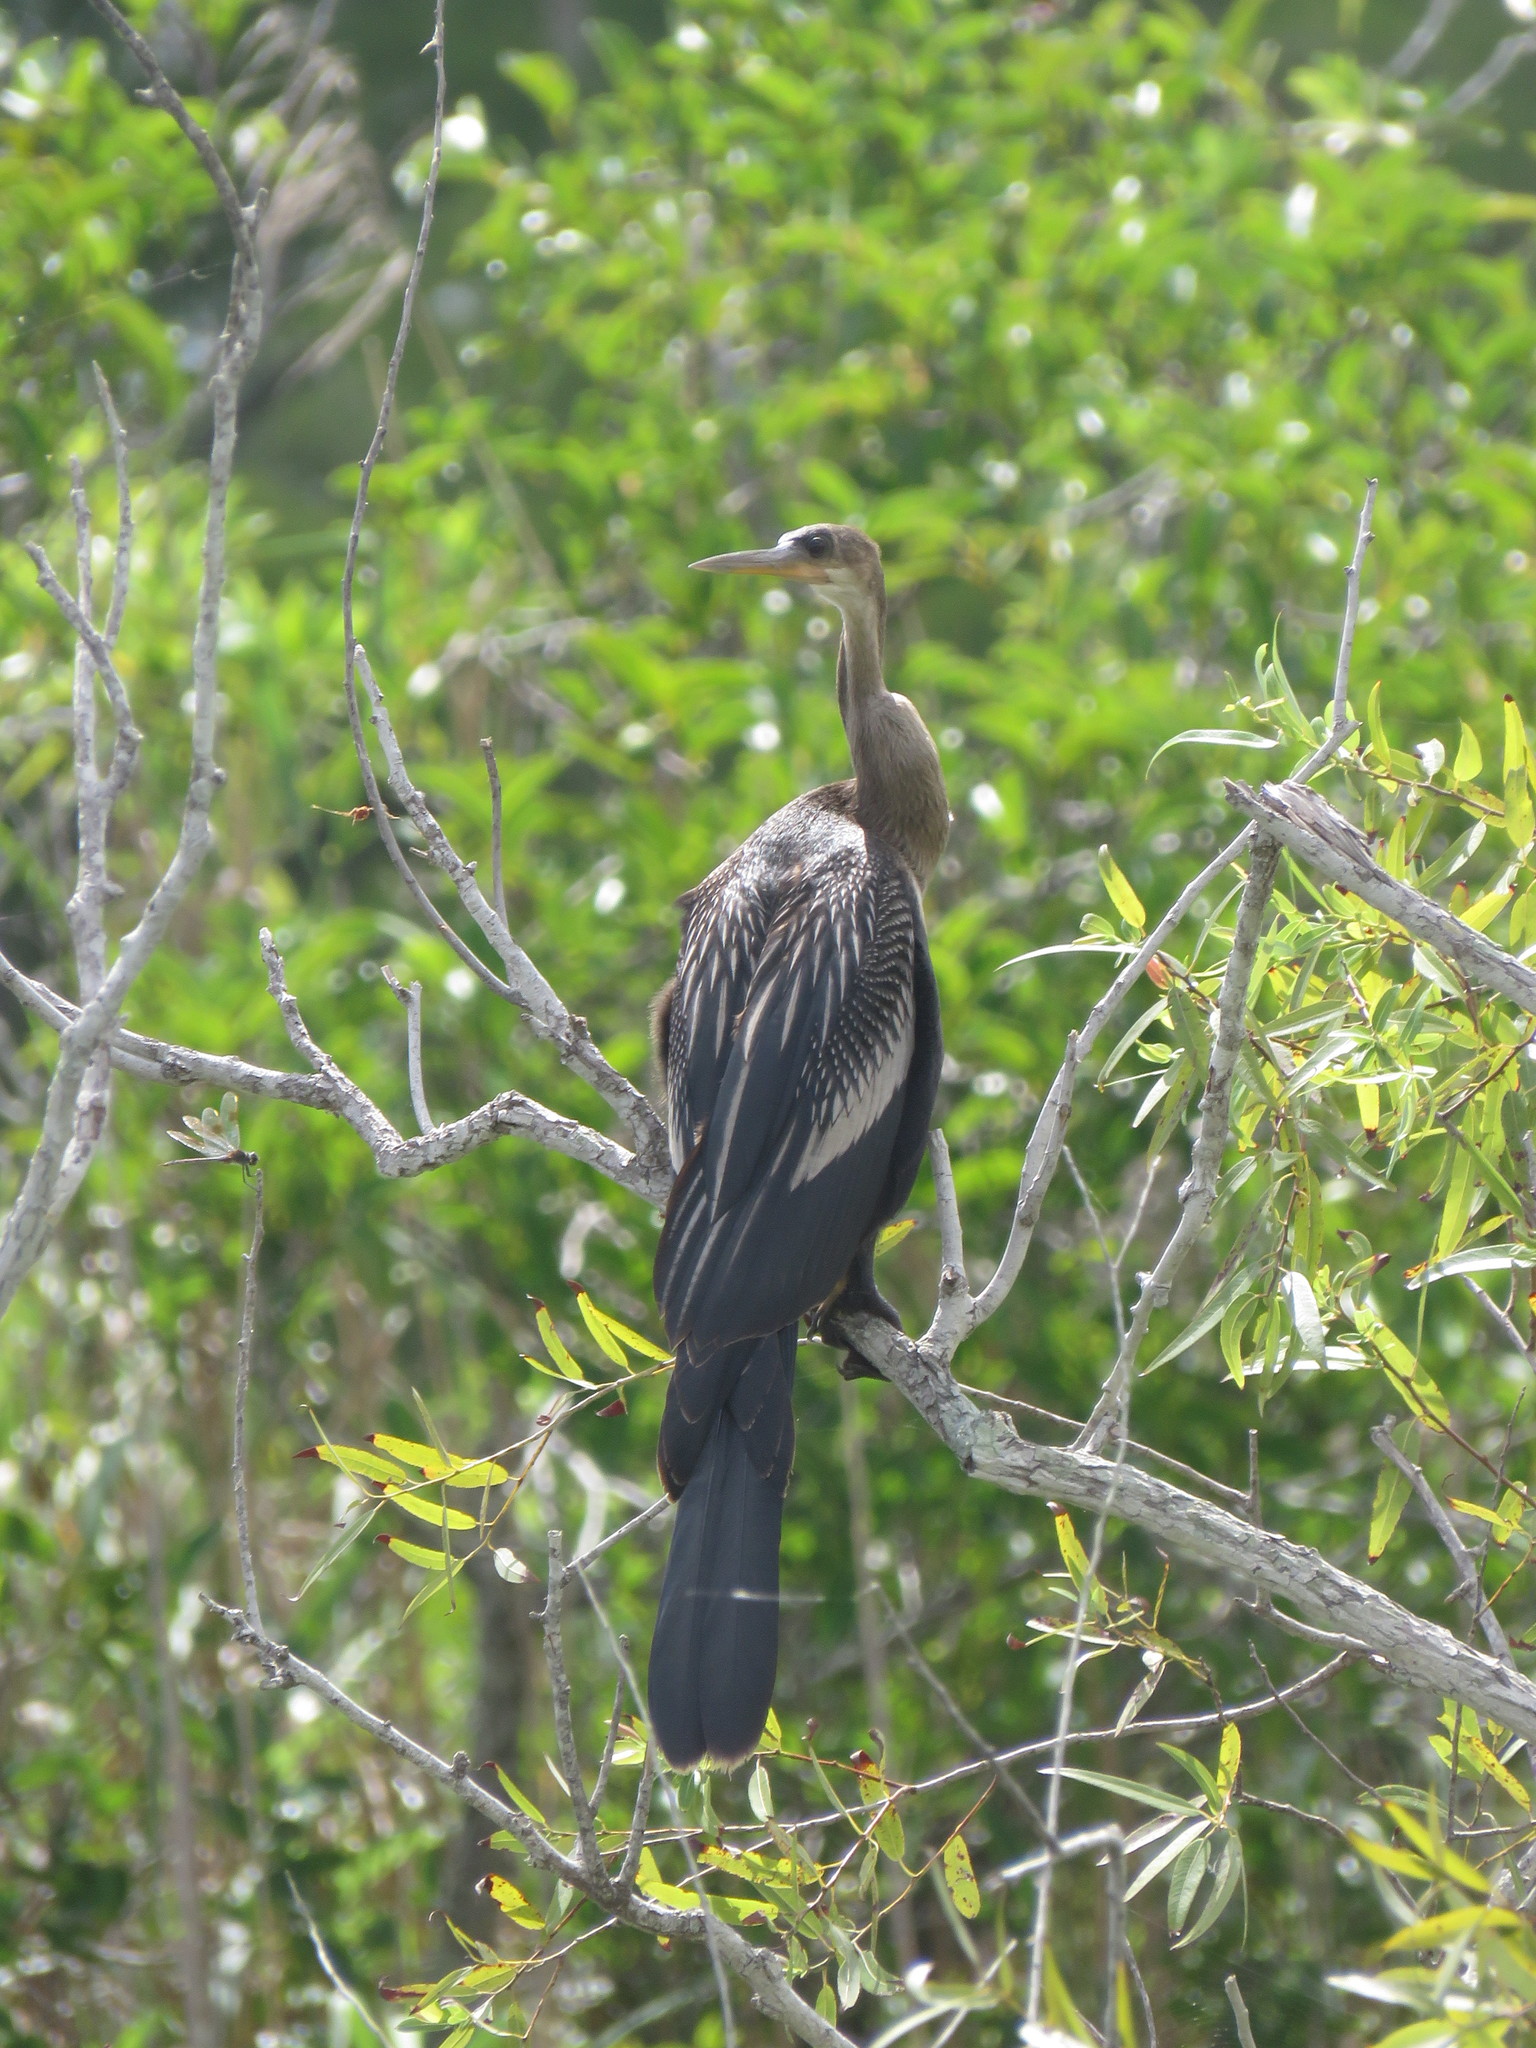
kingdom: Animalia
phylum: Chordata
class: Aves
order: Suliformes
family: Anhingidae
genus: Anhinga
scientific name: Anhinga anhinga
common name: Anhinga
